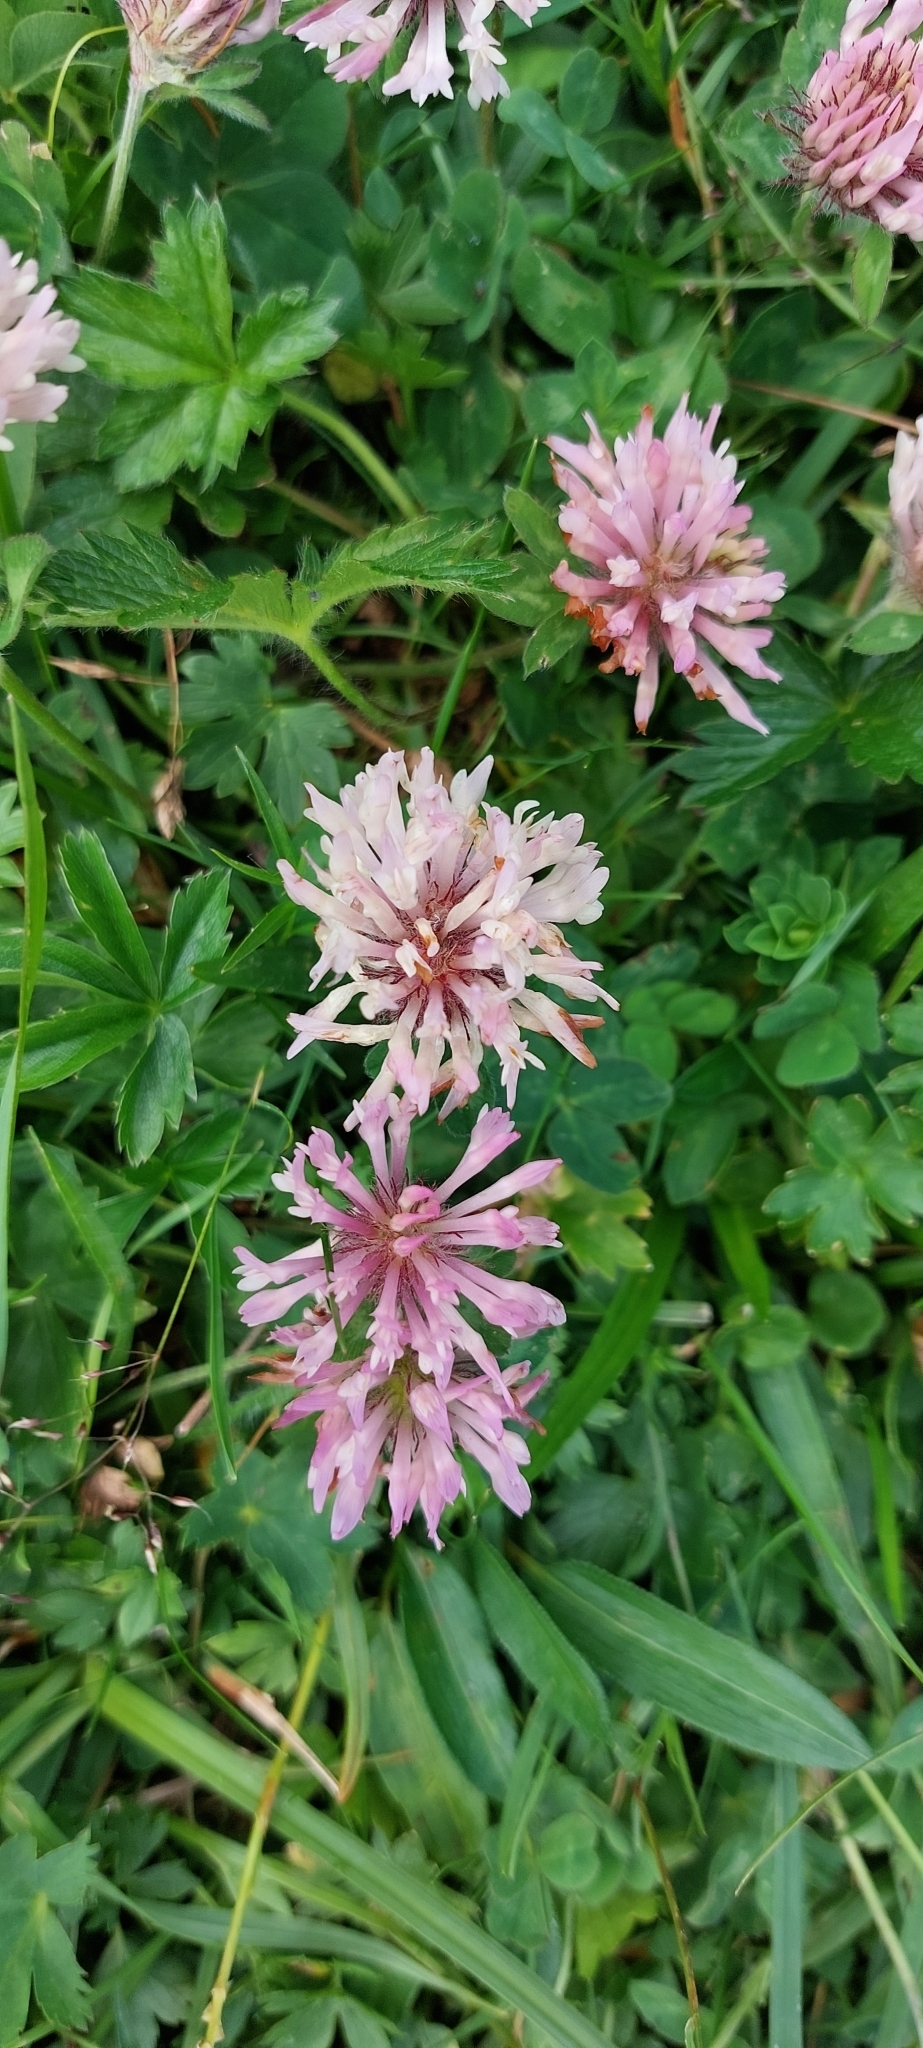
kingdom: Plantae
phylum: Tracheophyta
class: Magnoliopsida
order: Fabales
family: Fabaceae
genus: Trifolium
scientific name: Trifolium pratense
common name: Red clover
